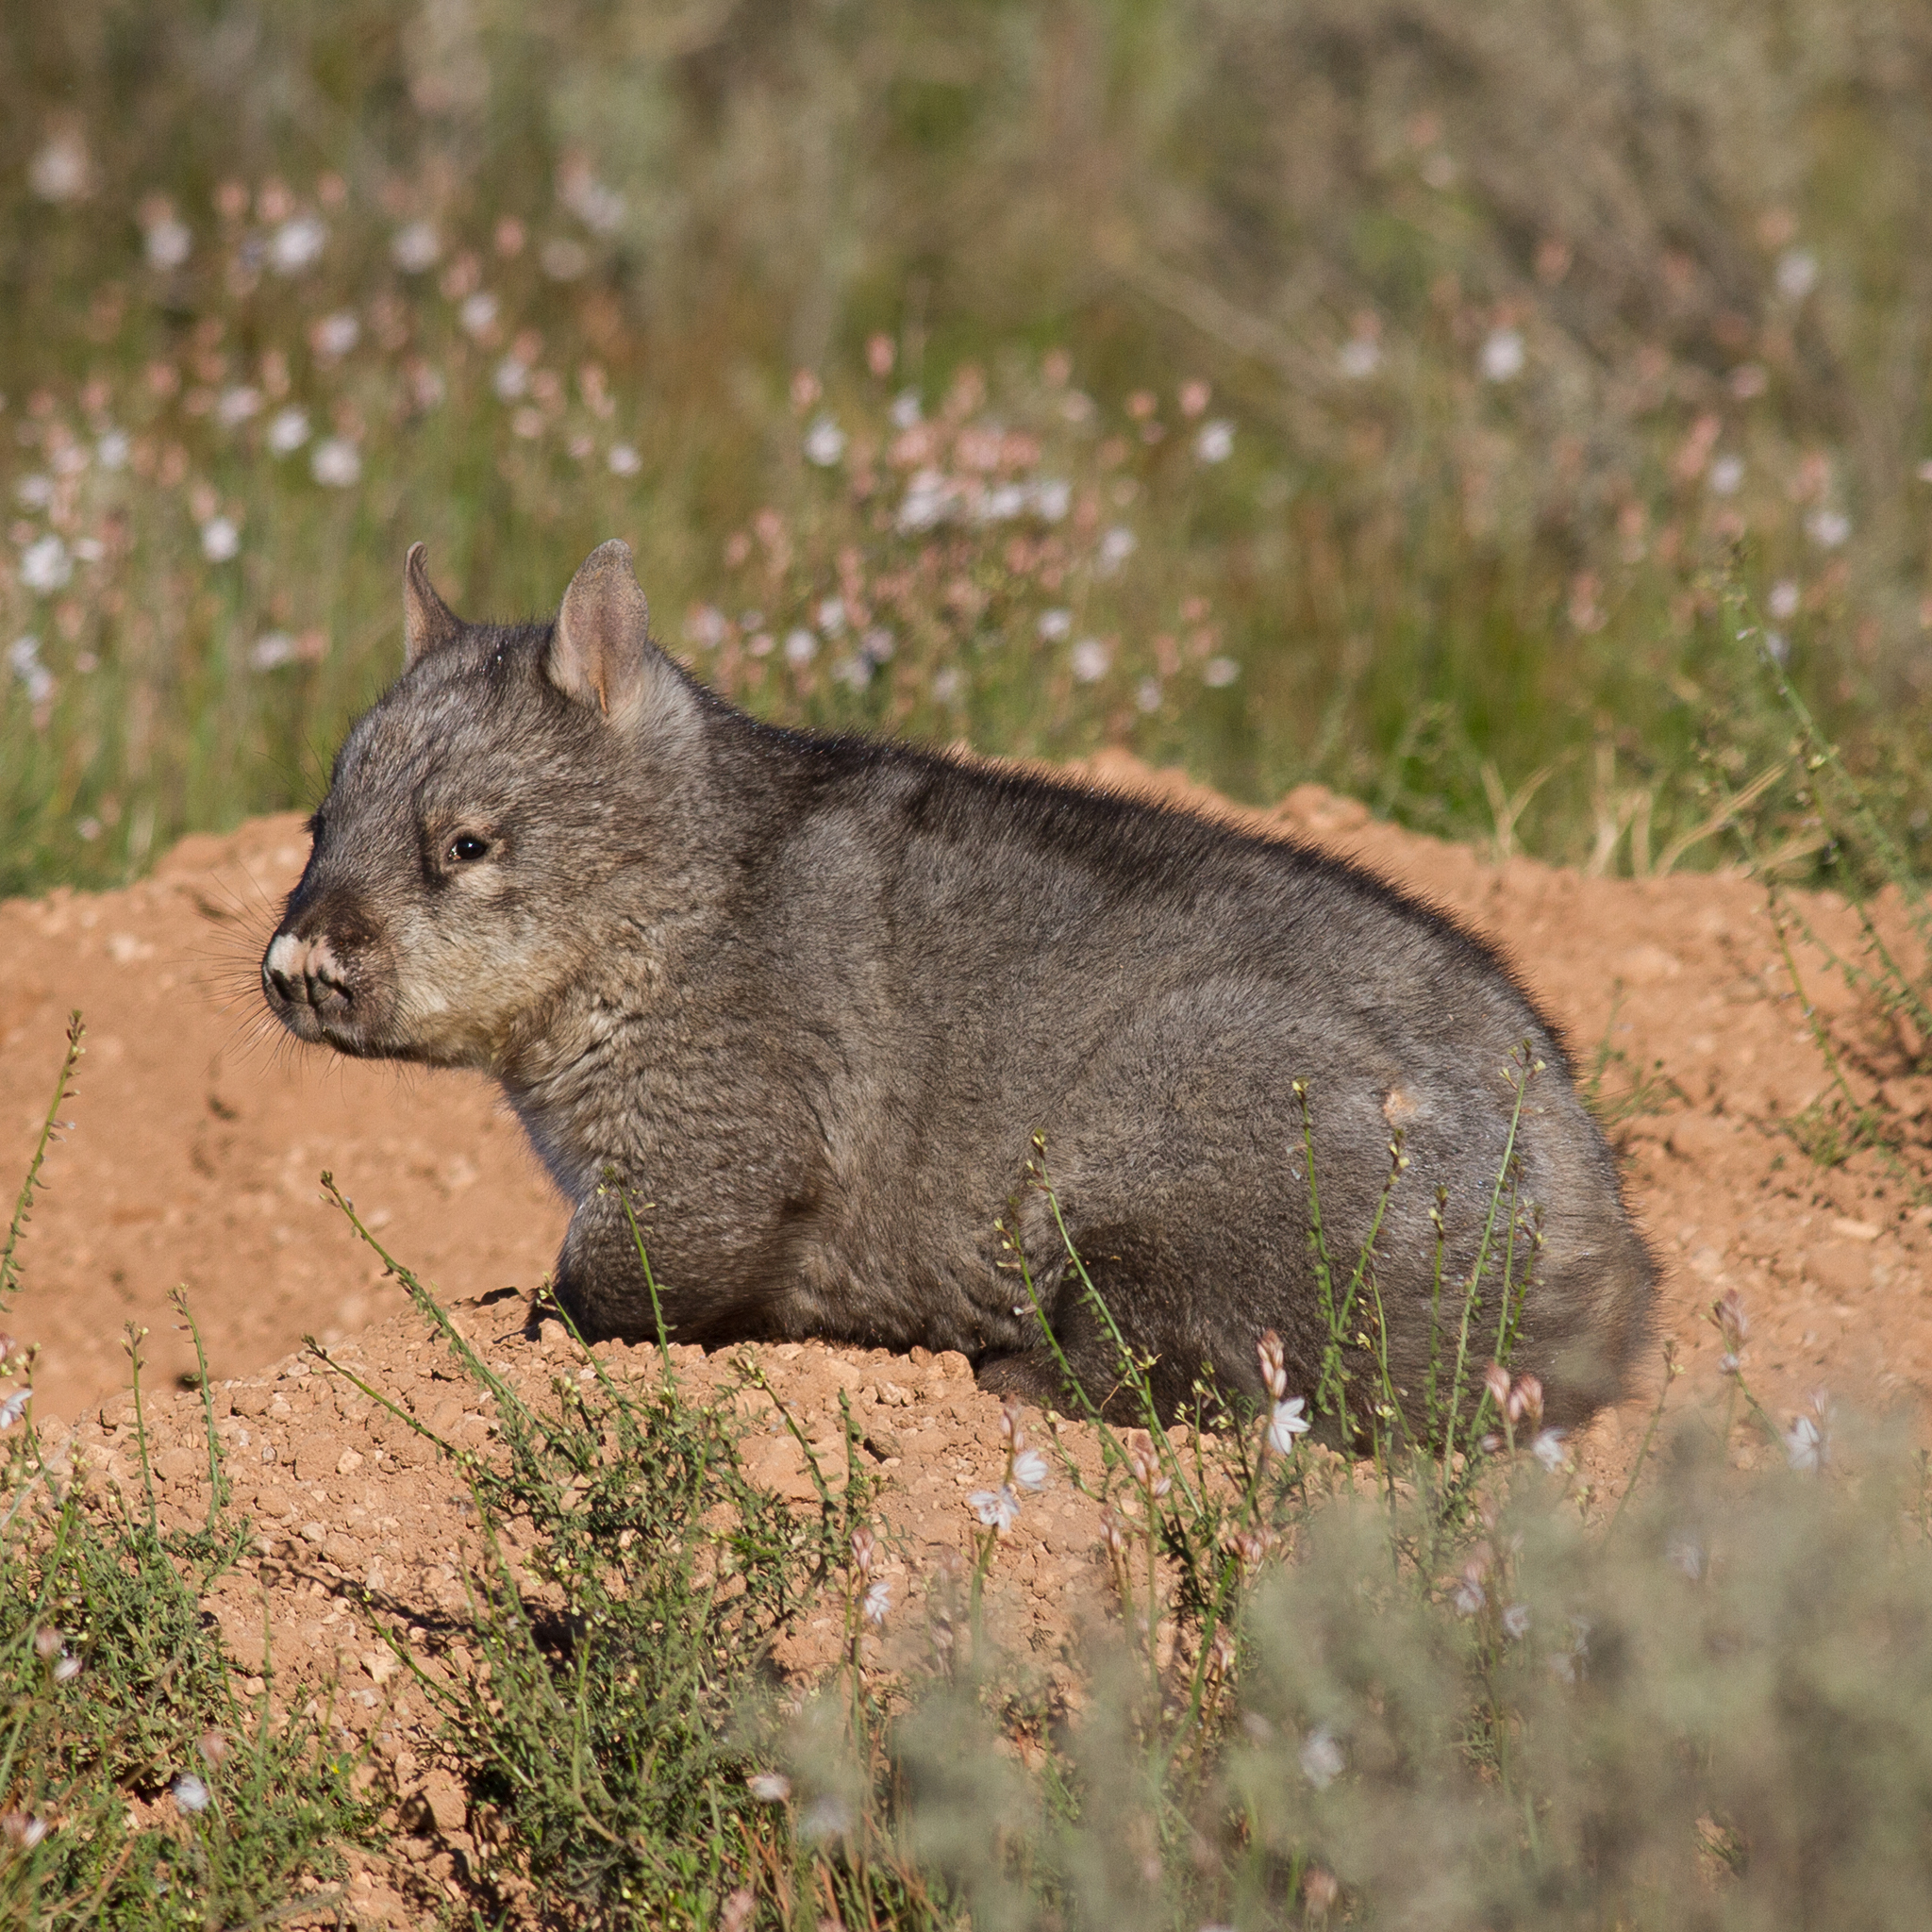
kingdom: Animalia
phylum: Chordata
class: Mammalia
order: Diprotodontia
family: Vombatidae
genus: Lasiorhinus
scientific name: Lasiorhinus latifrons
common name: Southern hairy-nosed wombat
